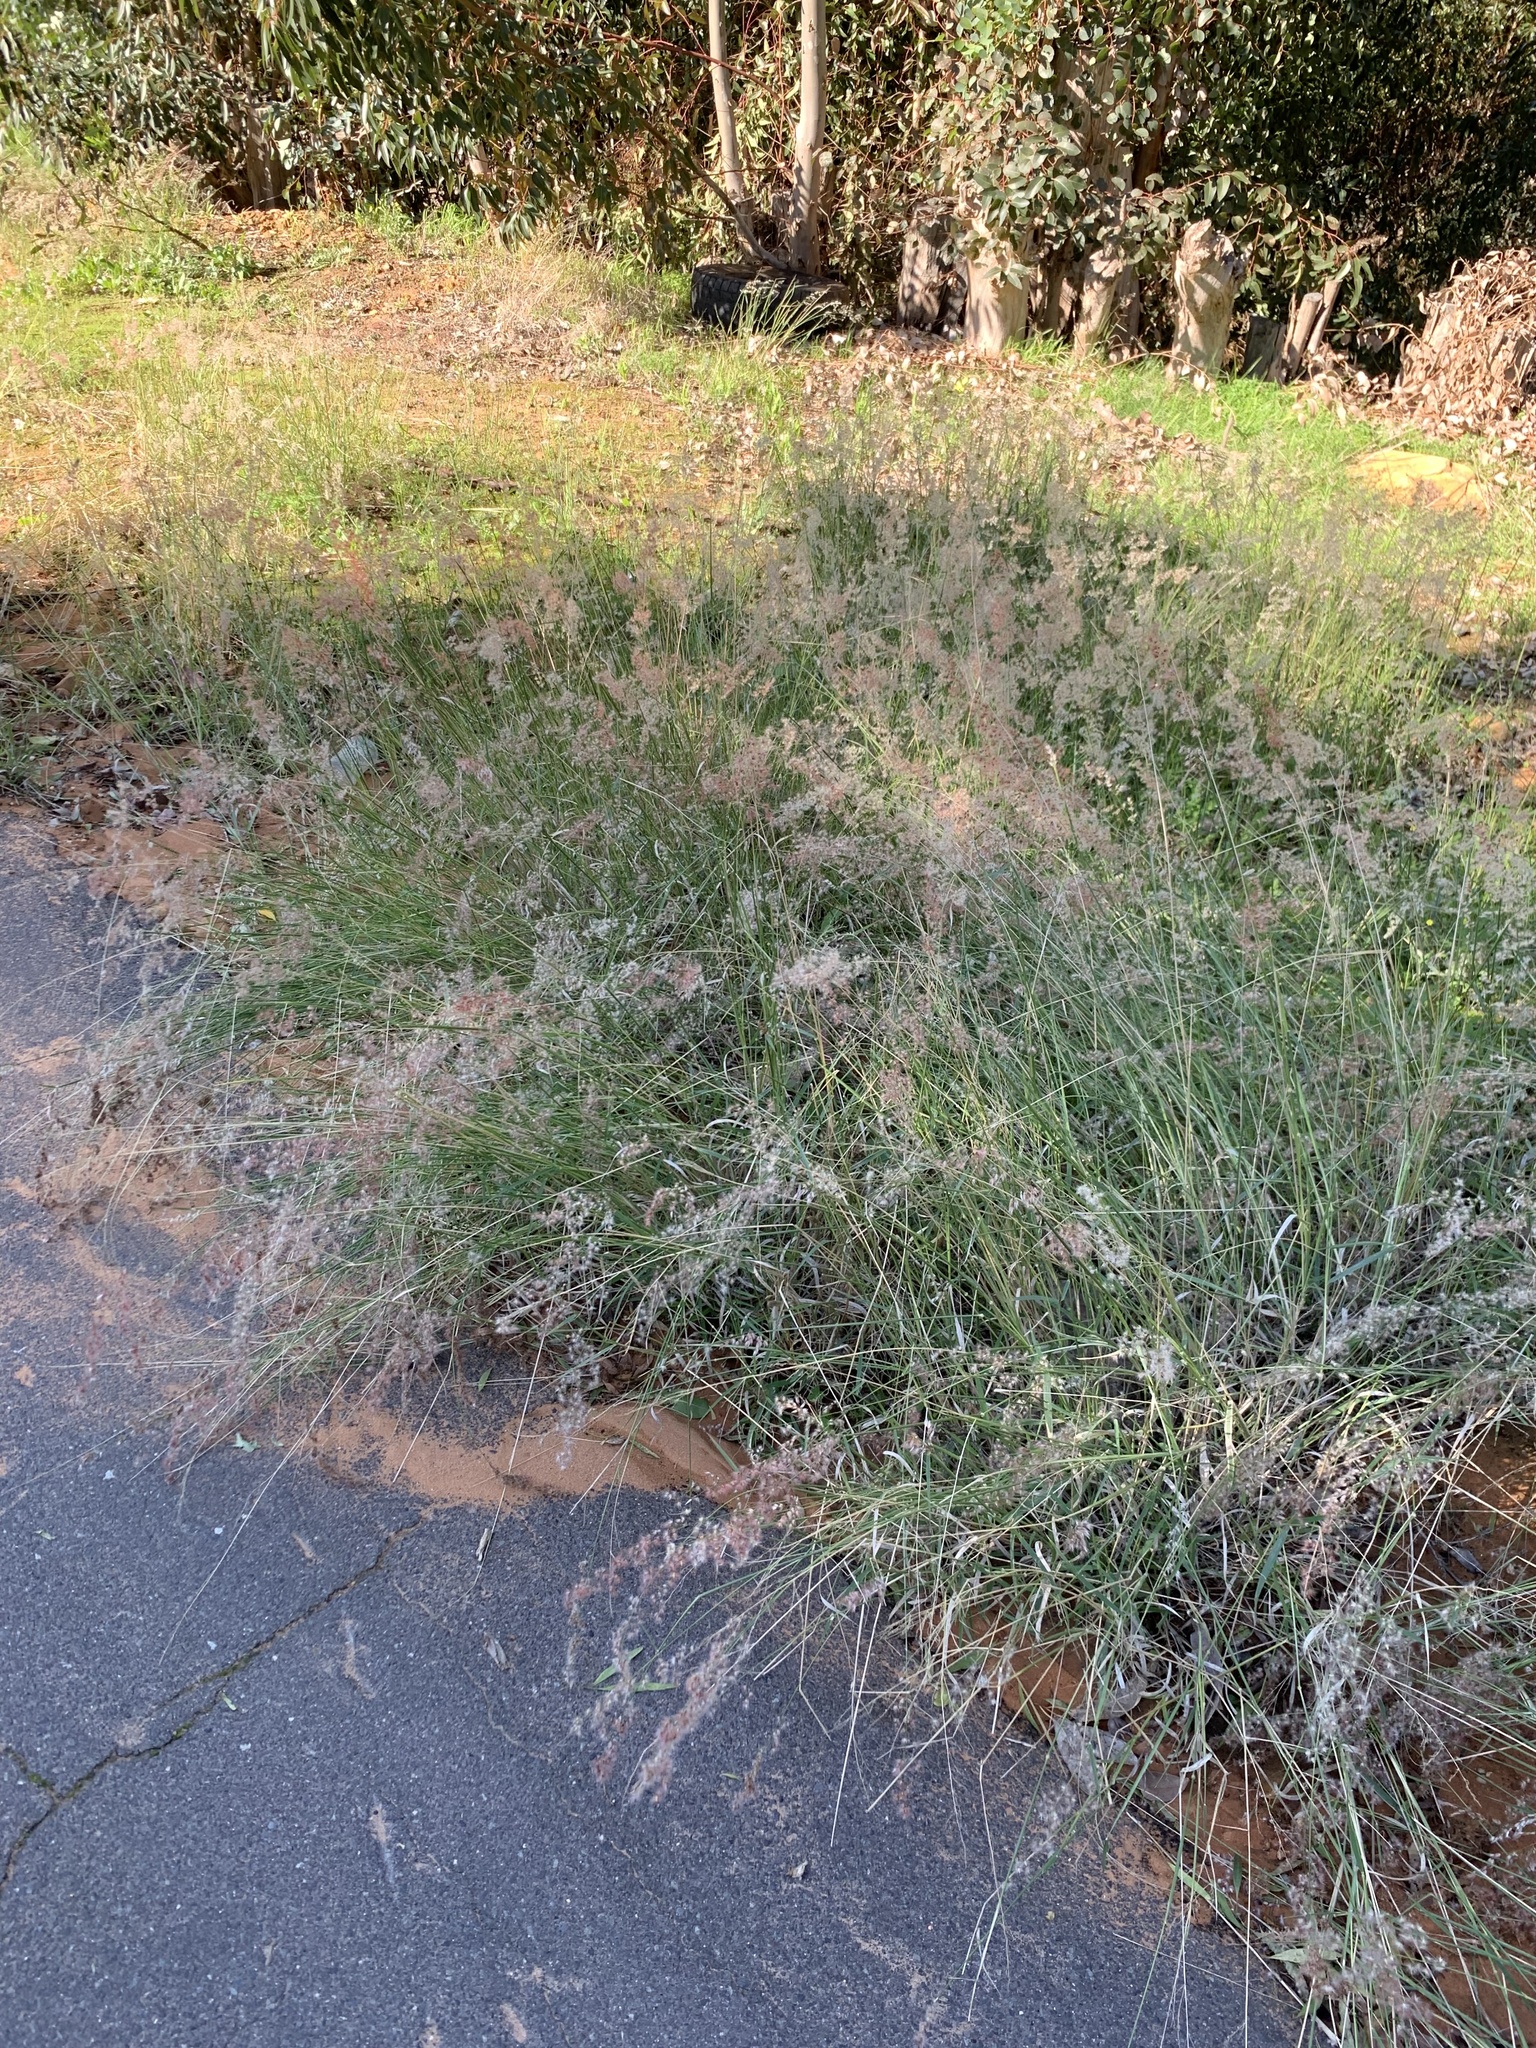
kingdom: Plantae
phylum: Tracheophyta
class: Liliopsida
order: Poales
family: Poaceae
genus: Melinis
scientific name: Melinis repens
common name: Rose natal grass
